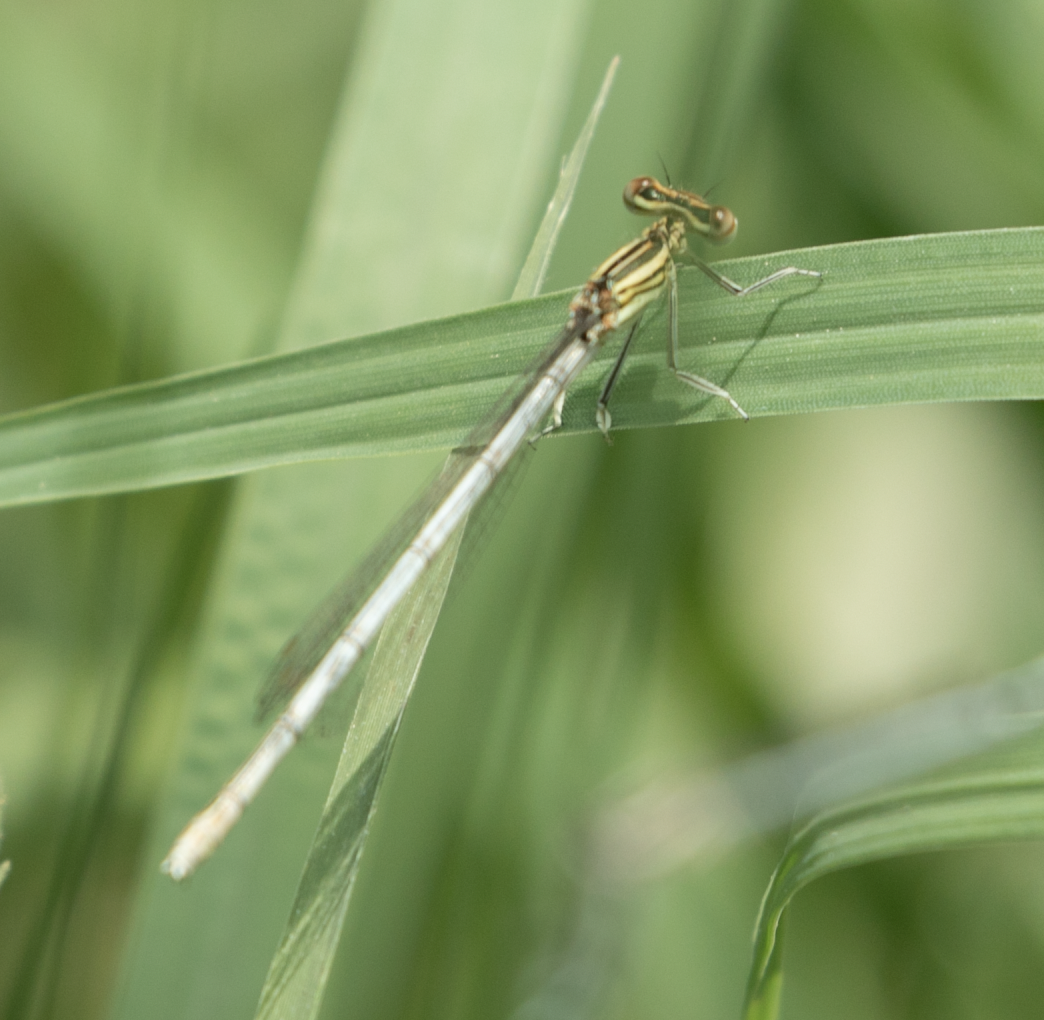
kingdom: Animalia
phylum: Arthropoda
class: Insecta
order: Odonata
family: Platycnemididae
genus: Platycnemis
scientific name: Platycnemis pennipes
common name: White-legged damselfly
